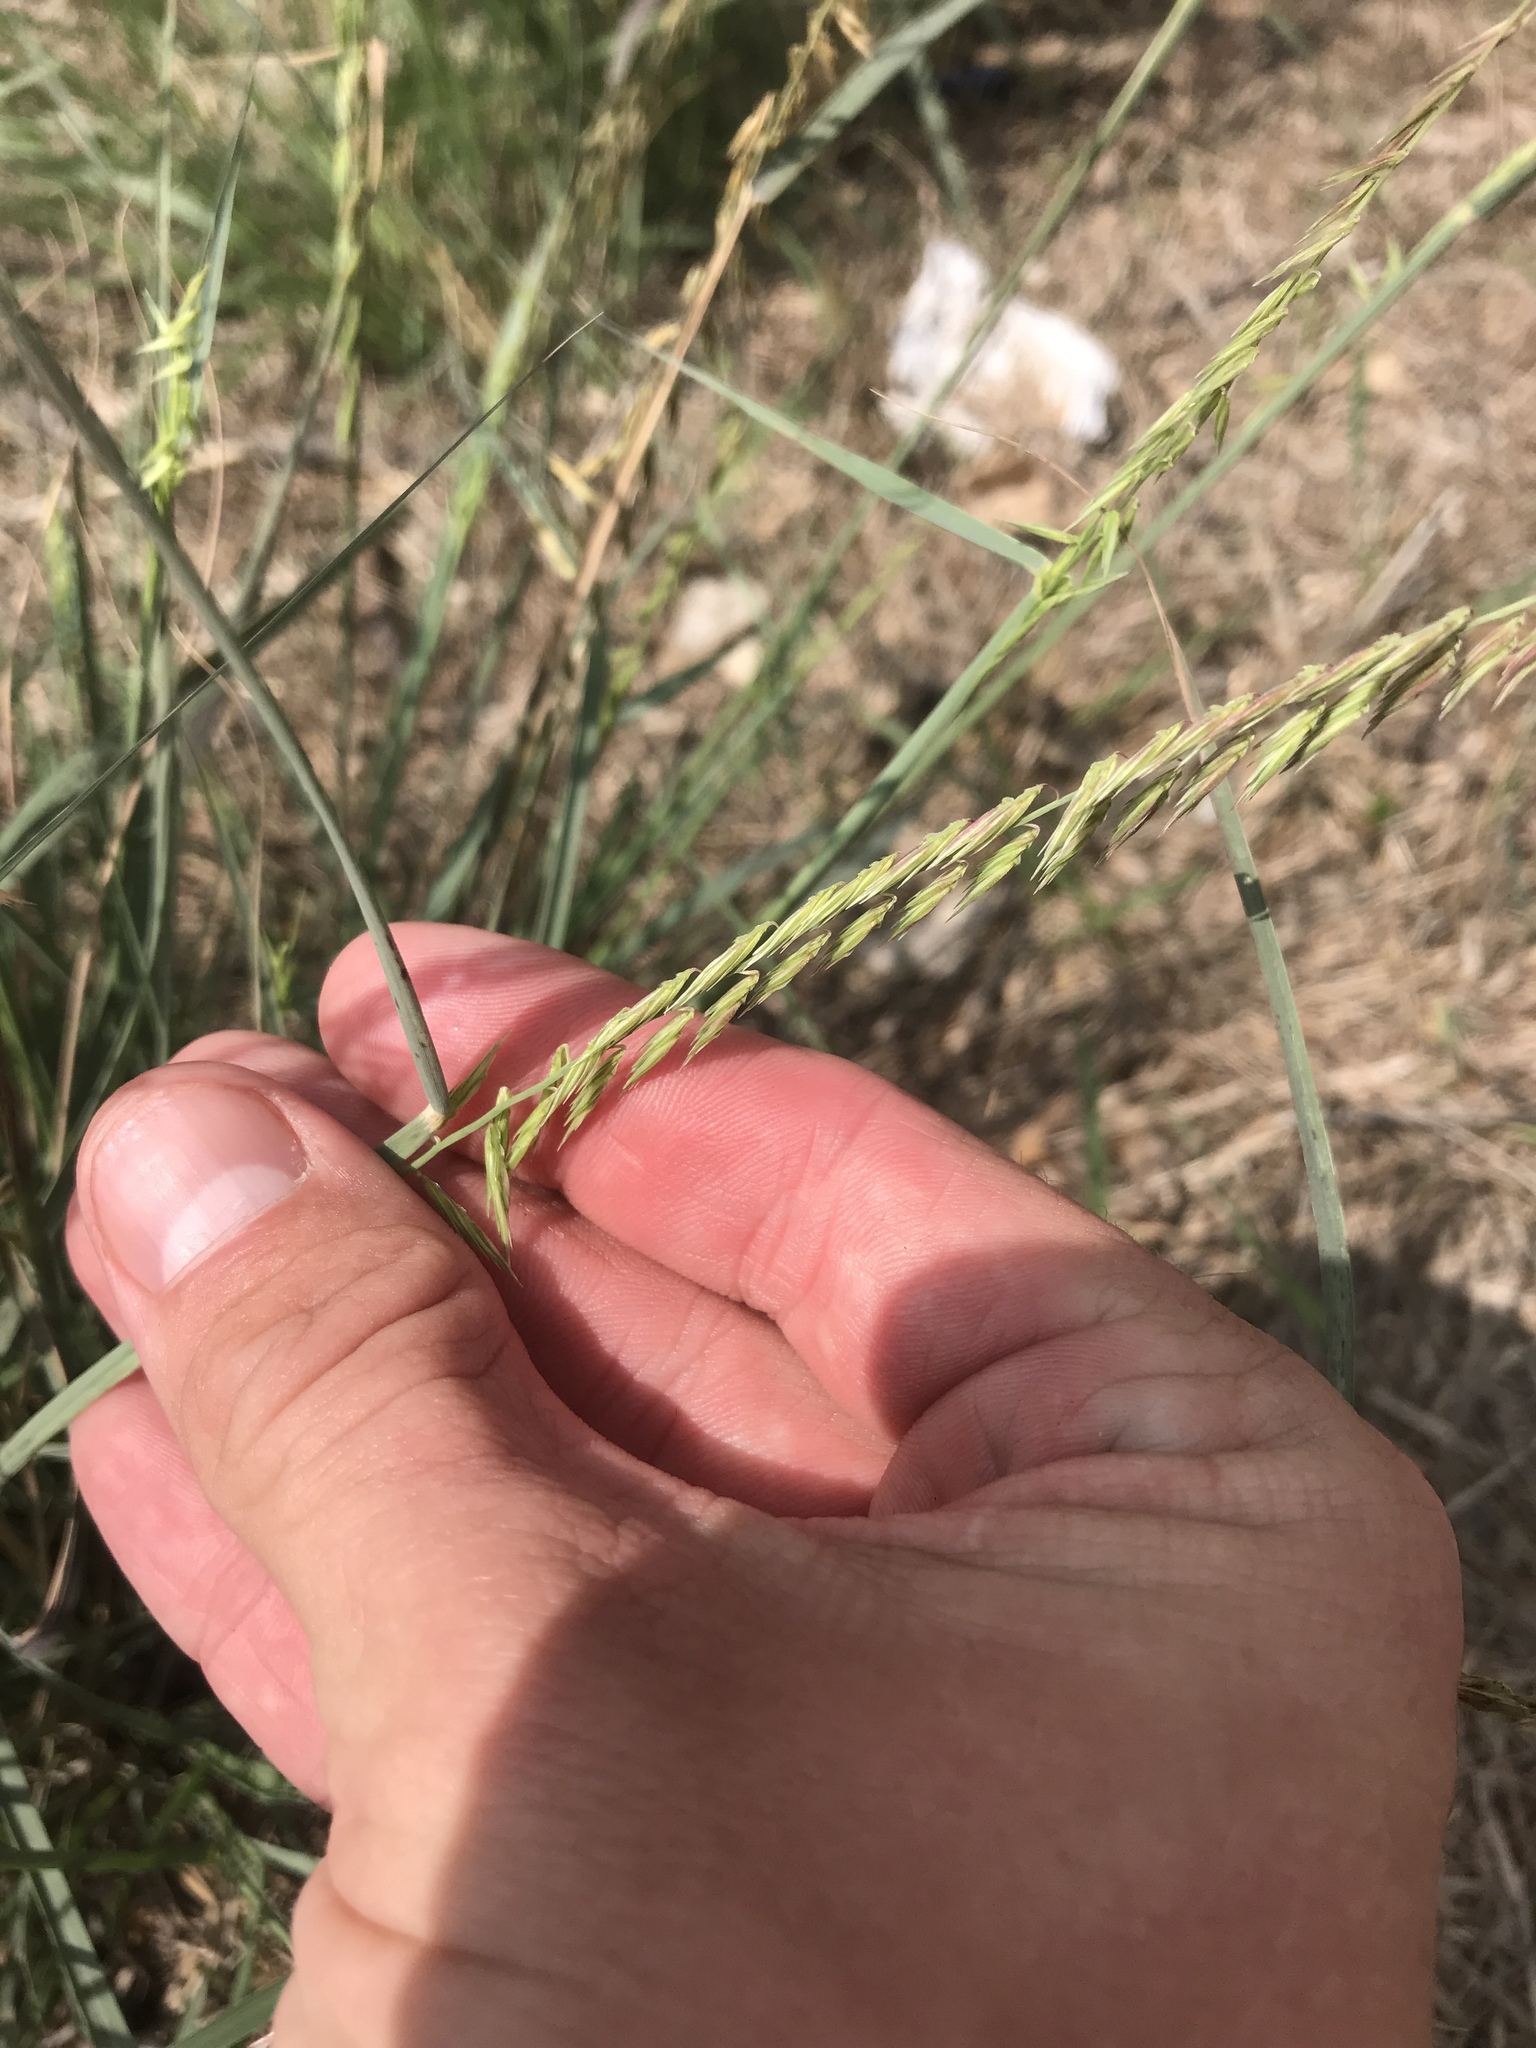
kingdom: Plantae
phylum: Tracheophyta
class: Liliopsida
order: Poales
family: Poaceae
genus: Bouteloua
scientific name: Bouteloua curtipendula
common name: Side-oats grama
